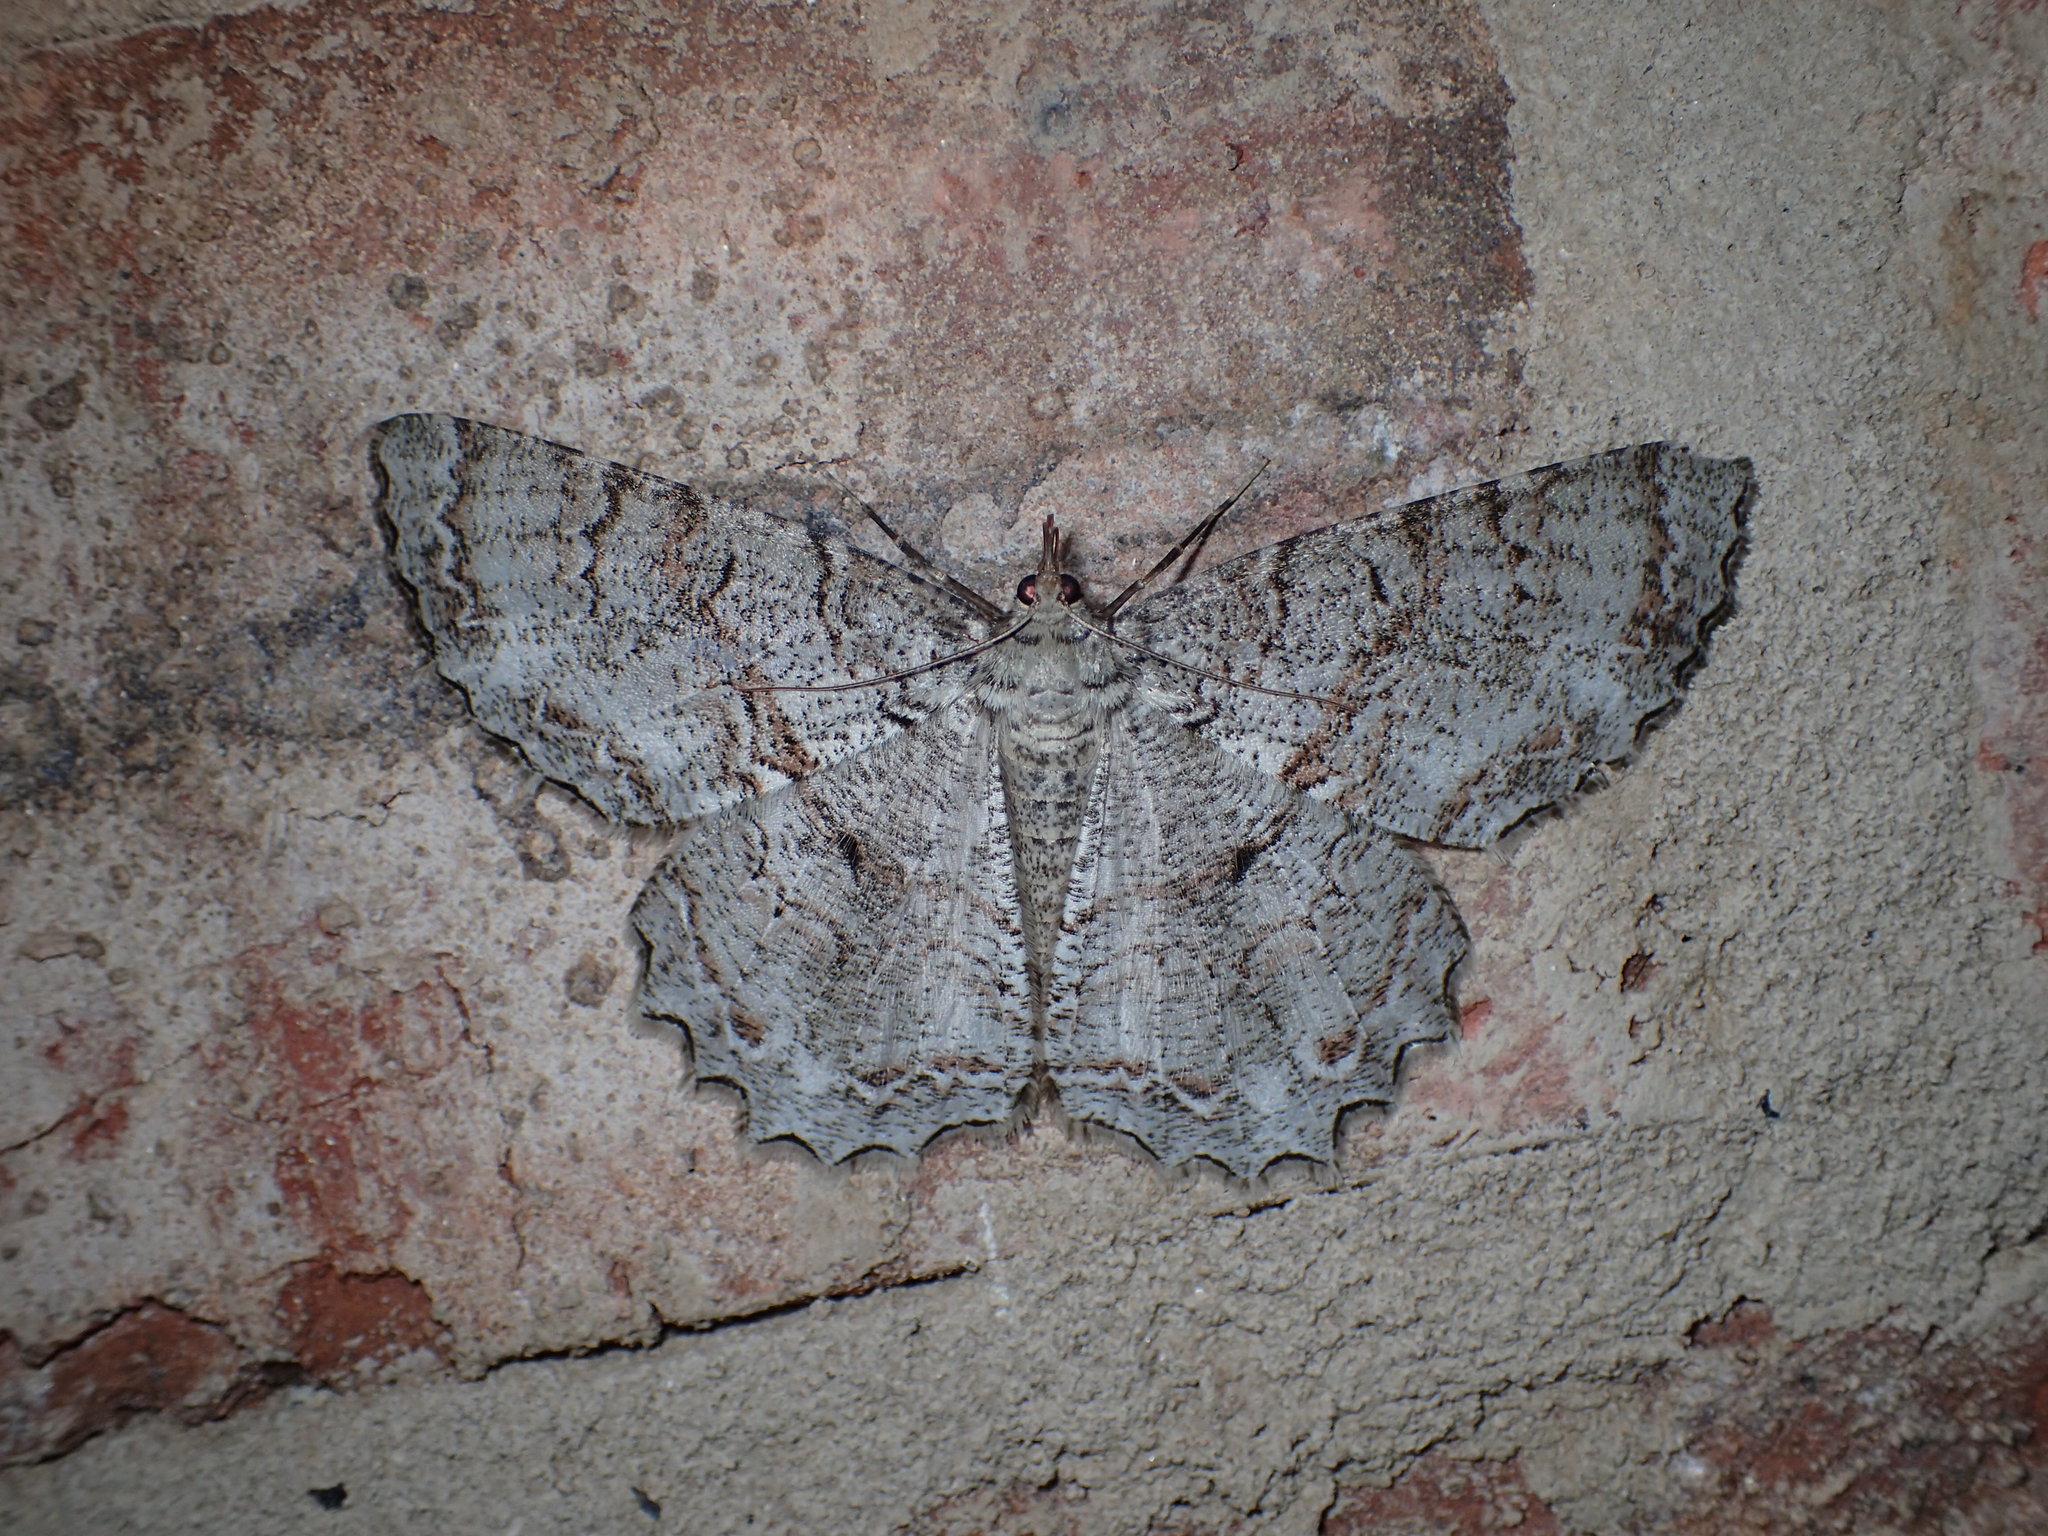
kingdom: Animalia
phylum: Arthropoda
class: Insecta
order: Lepidoptera
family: Geometridae
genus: Epimecis
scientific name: Epimecis hortaria
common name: Tulip-tree beauty
